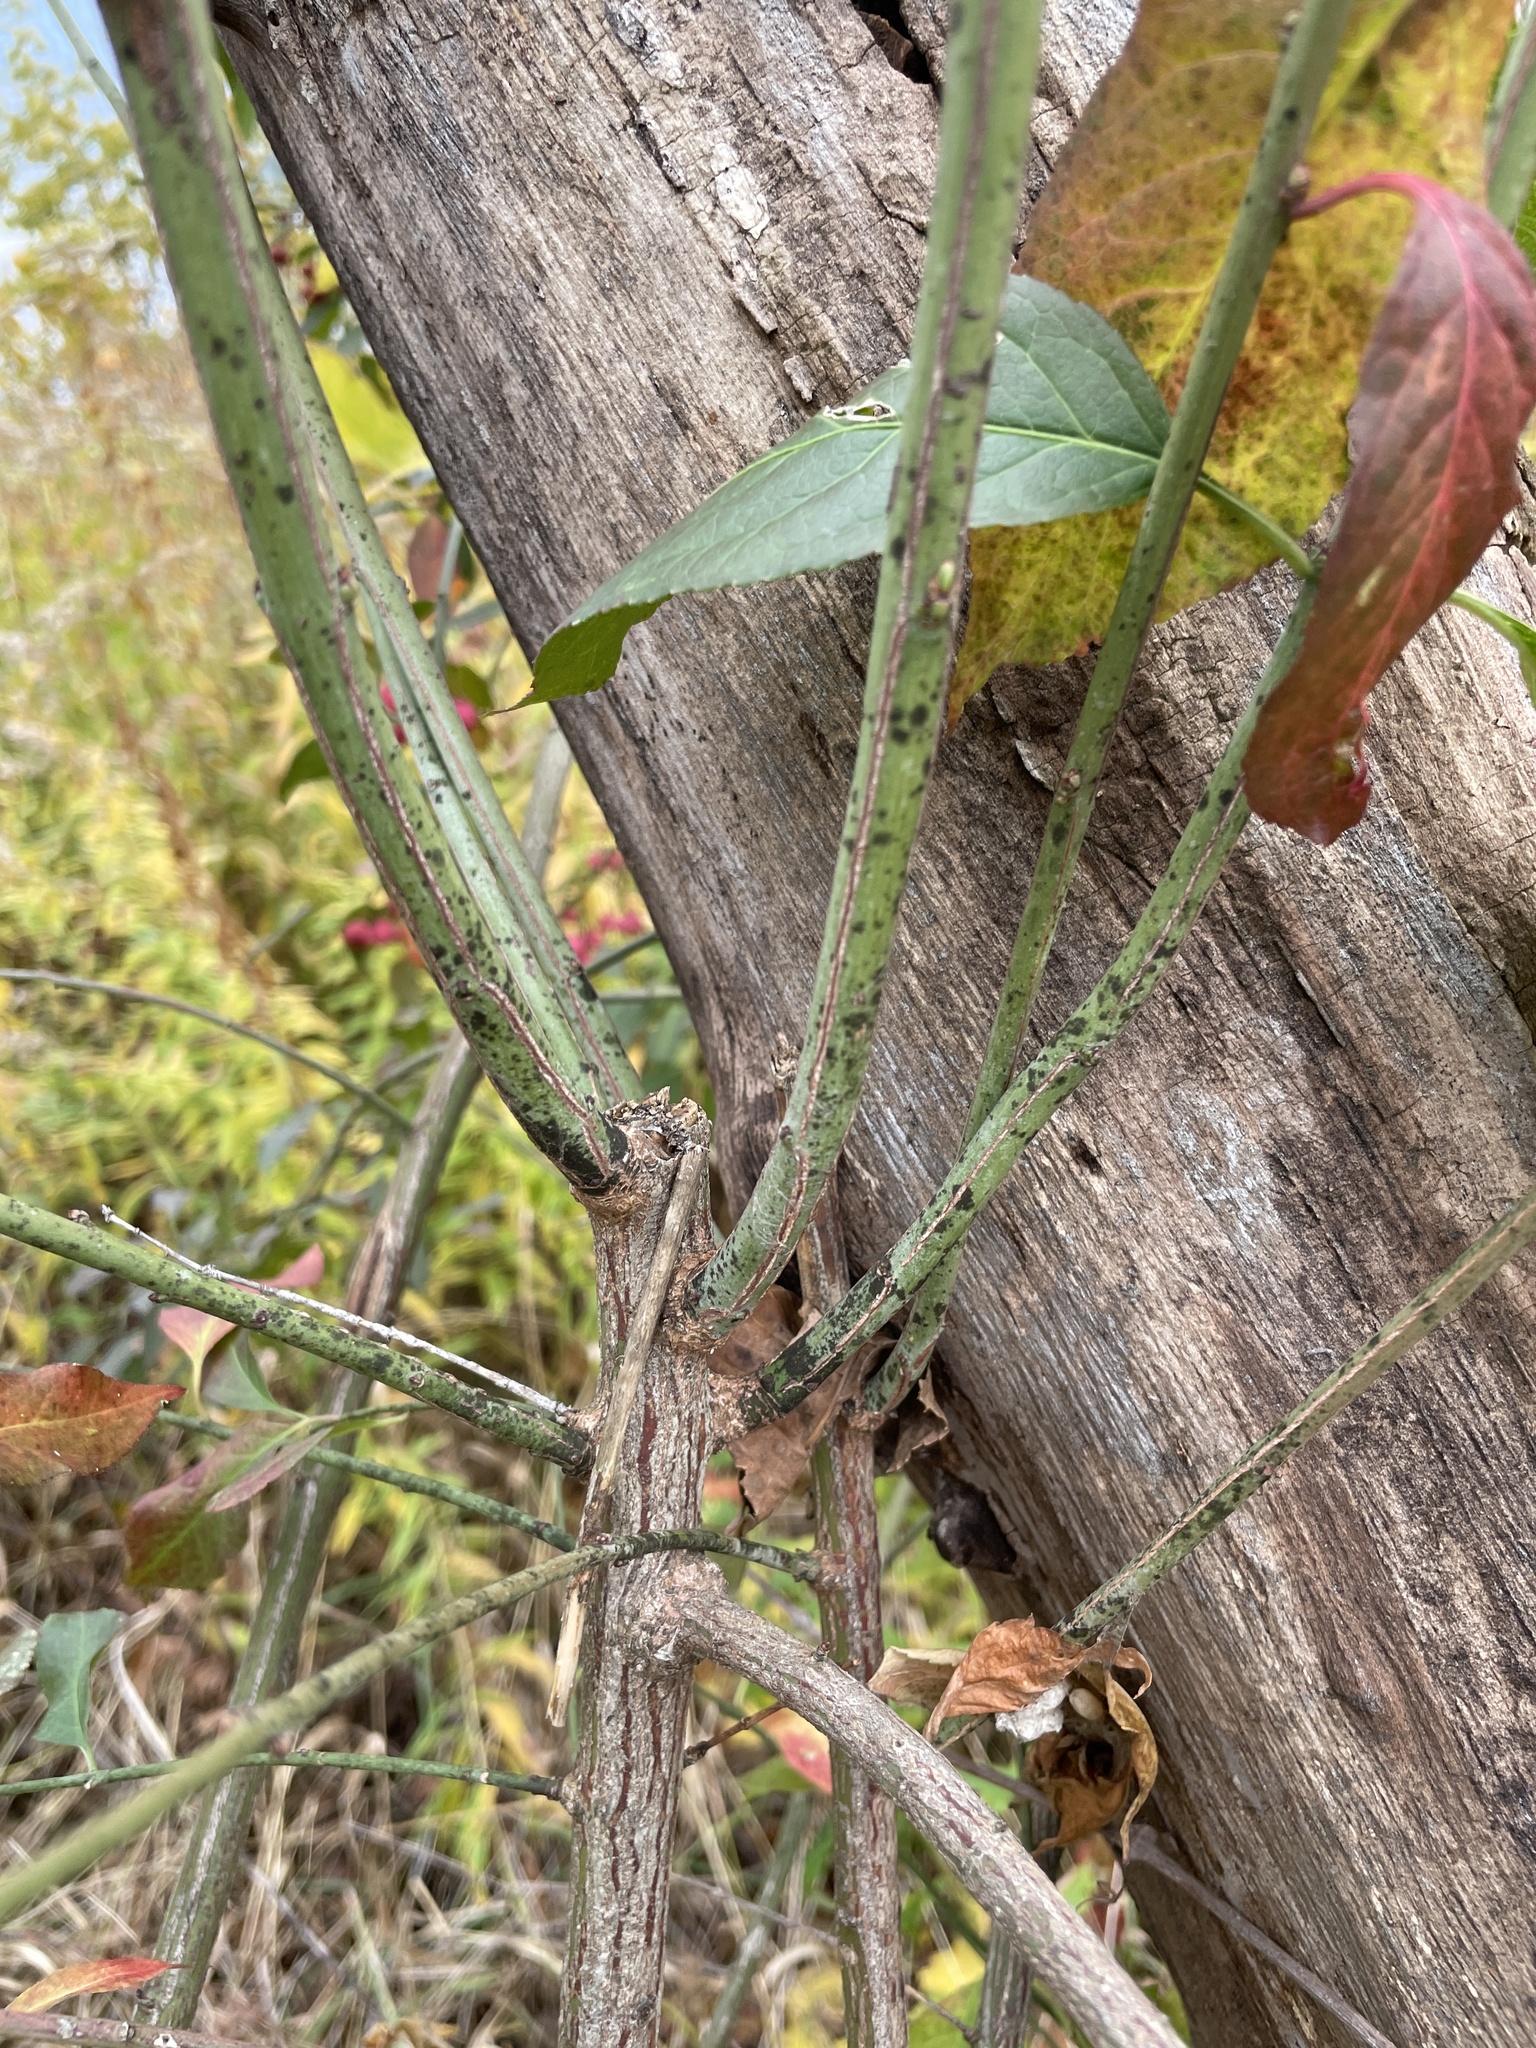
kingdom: Plantae
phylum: Tracheophyta
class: Magnoliopsida
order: Celastrales
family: Celastraceae
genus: Euonymus
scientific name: Euonymus europaeus
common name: Spindle
